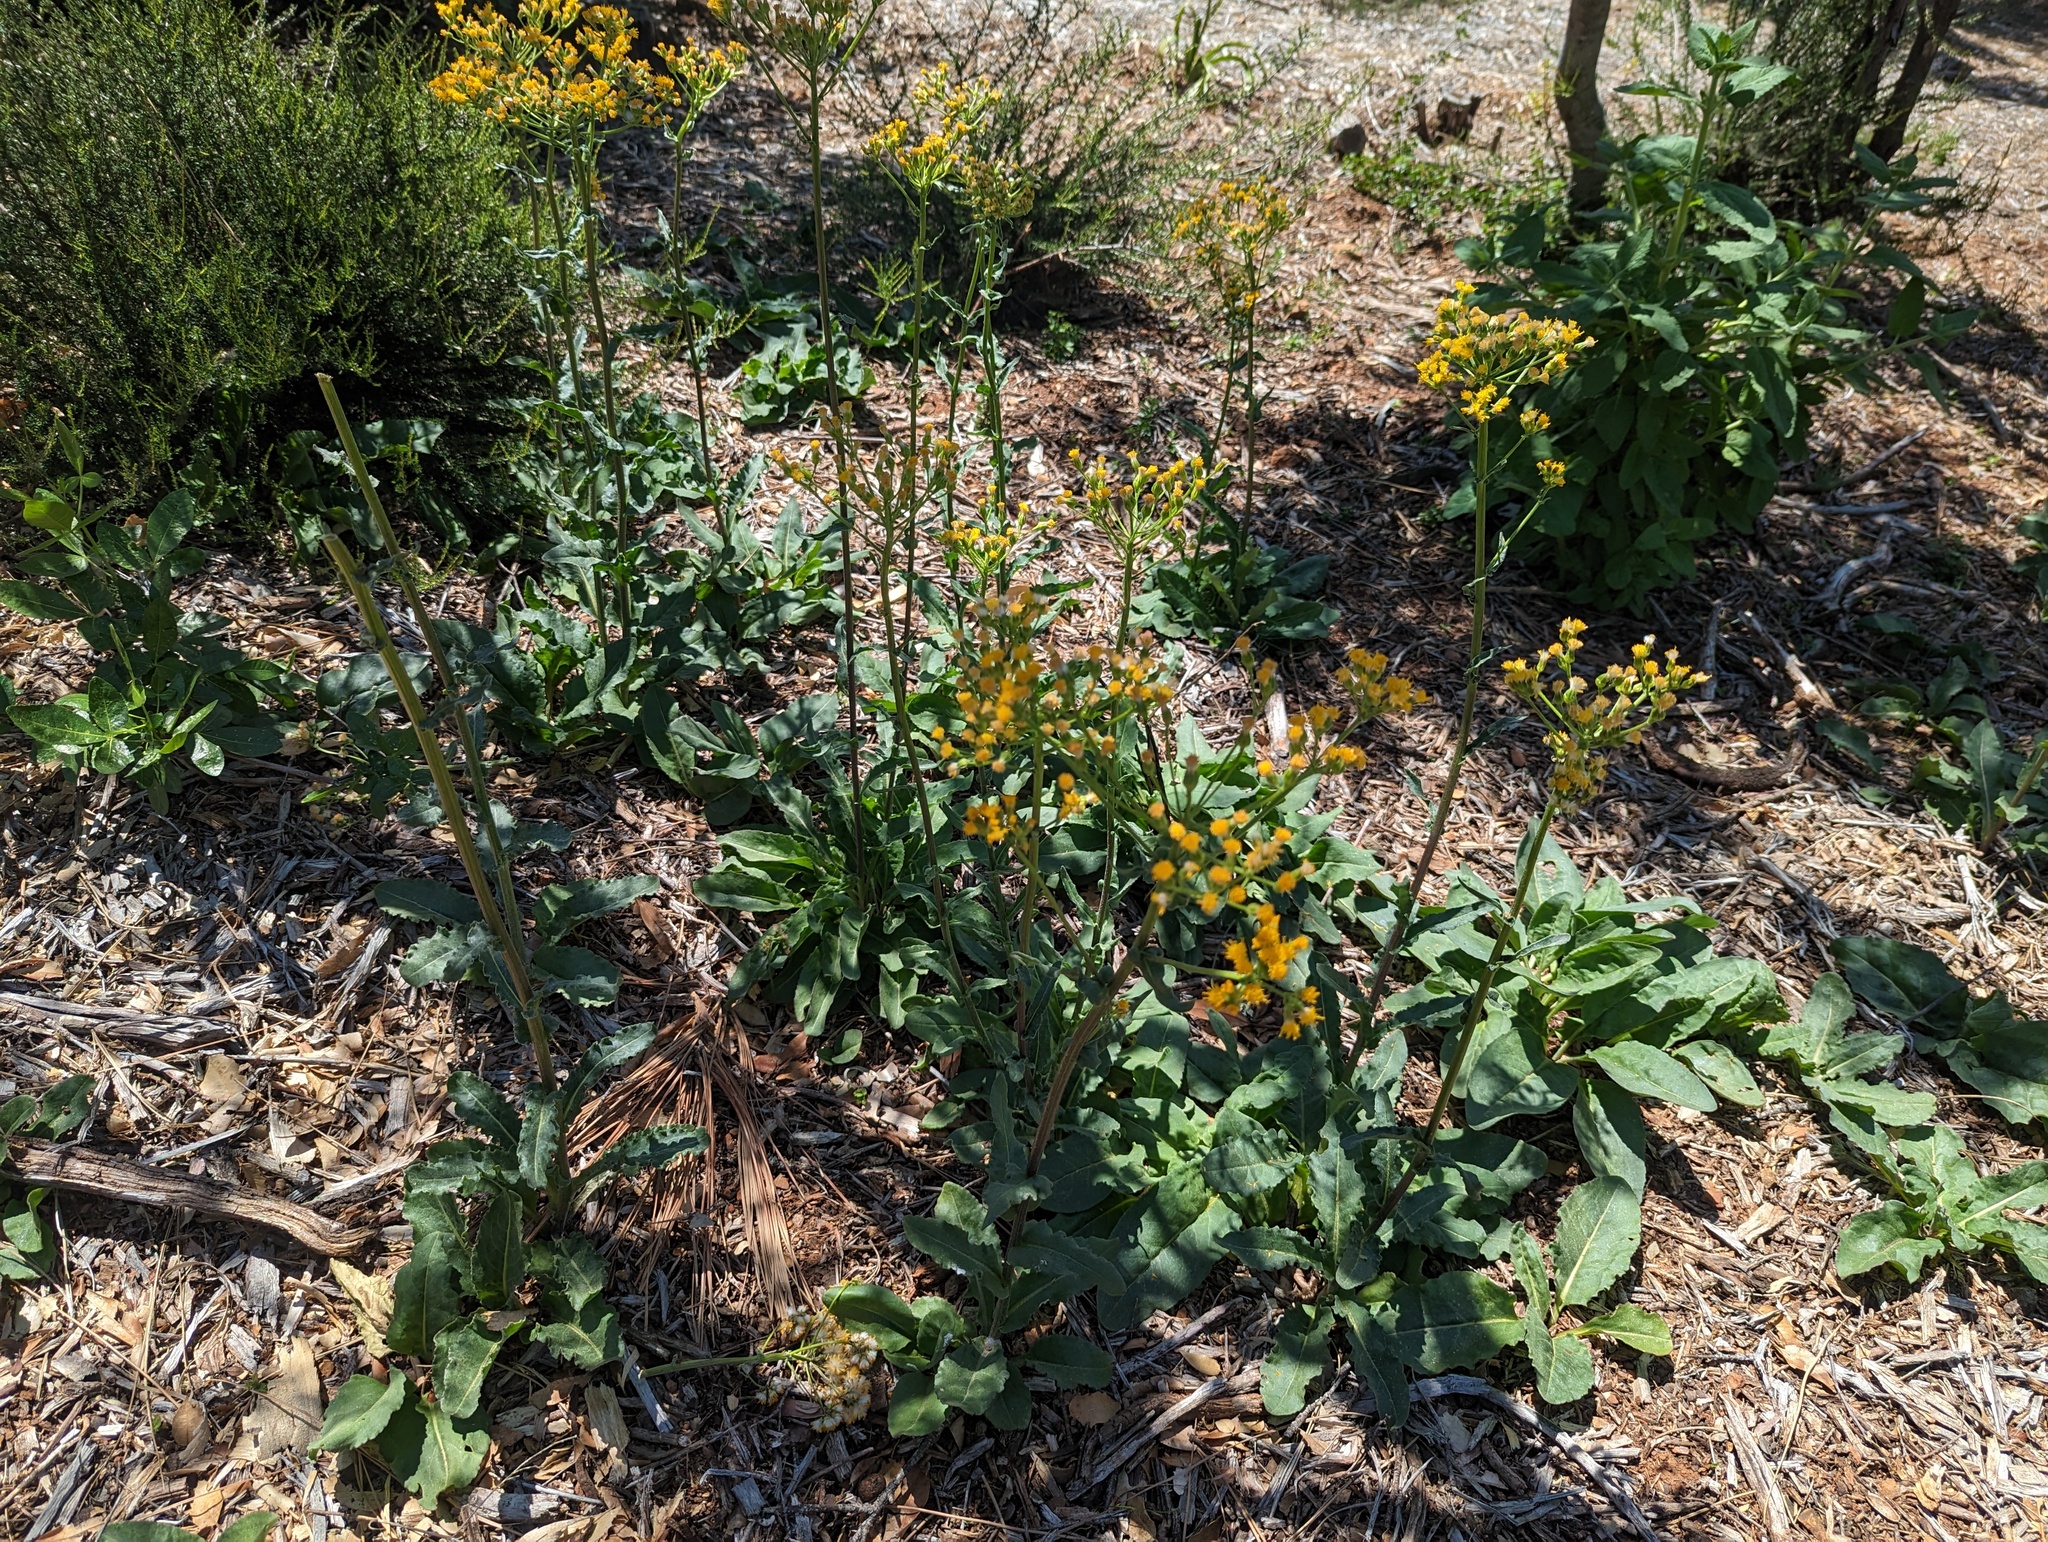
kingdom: Plantae
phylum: Tracheophyta
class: Magnoliopsida
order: Asterales
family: Asteraceae
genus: Senecio
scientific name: Senecio aronicoides
